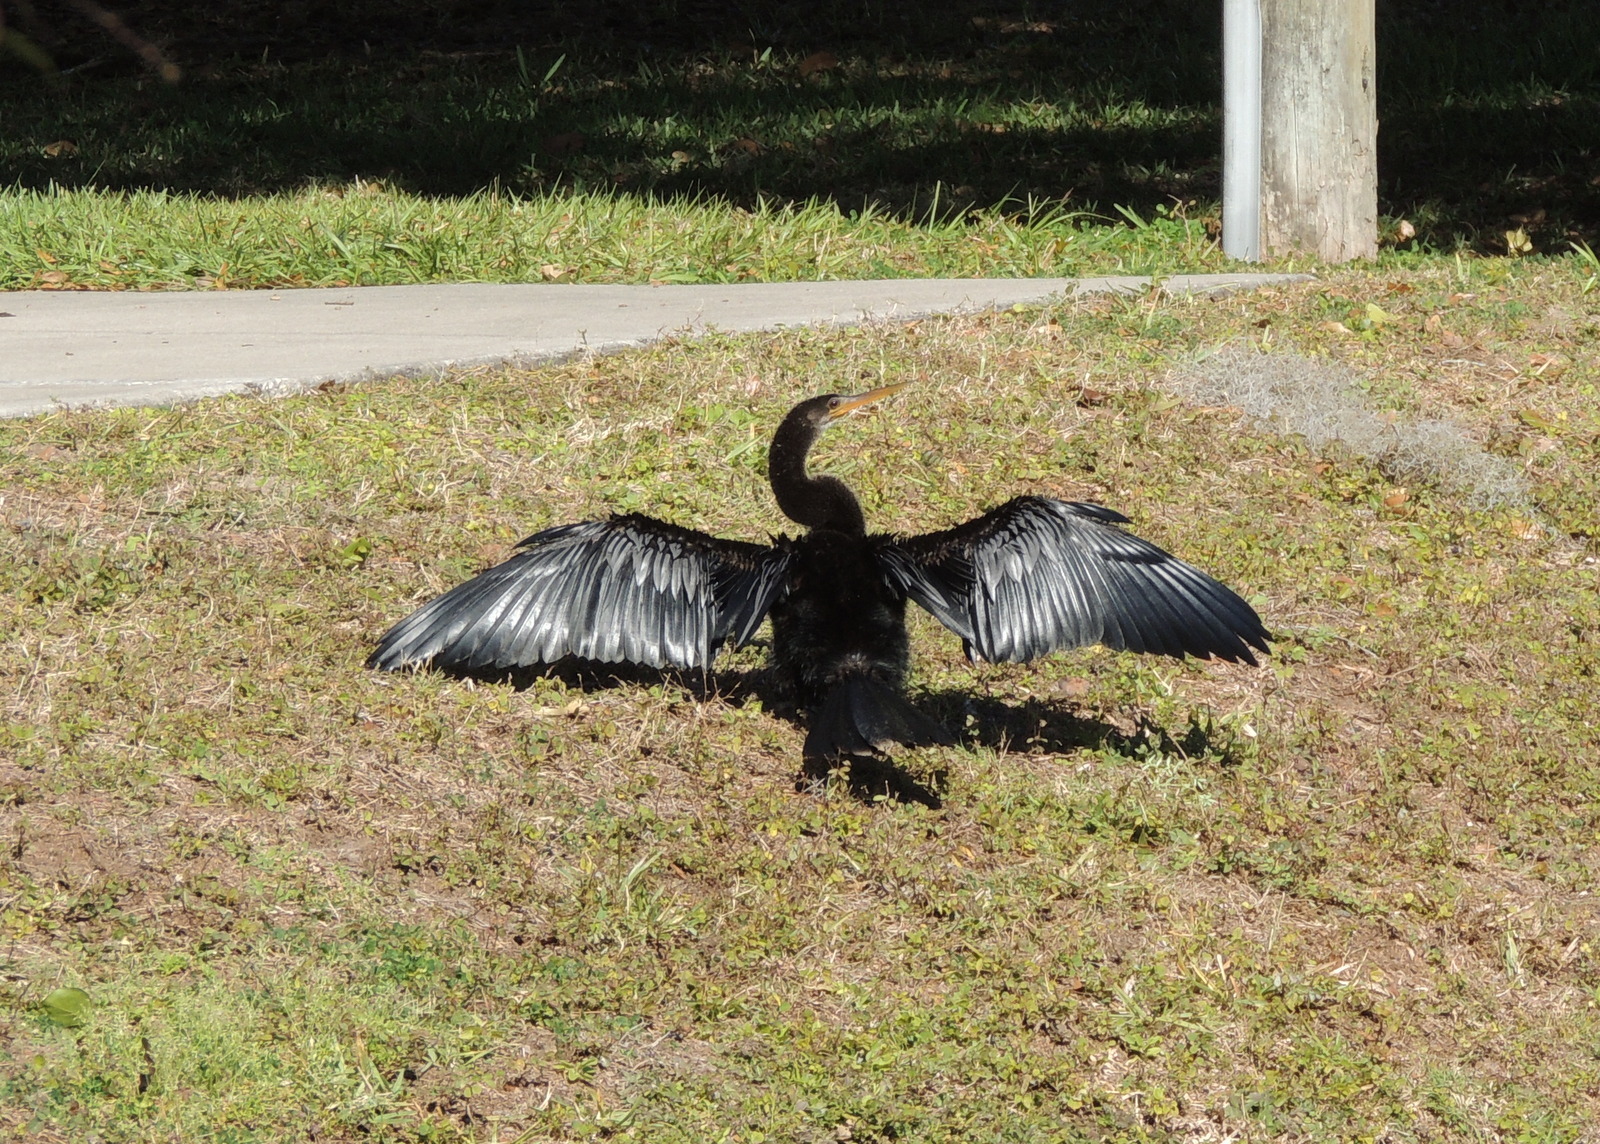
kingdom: Animalia
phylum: Chordata
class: Aves
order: Suliformes
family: Anhingidae
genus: Anhinga
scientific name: Anhinga anhinga
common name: Anhinga
